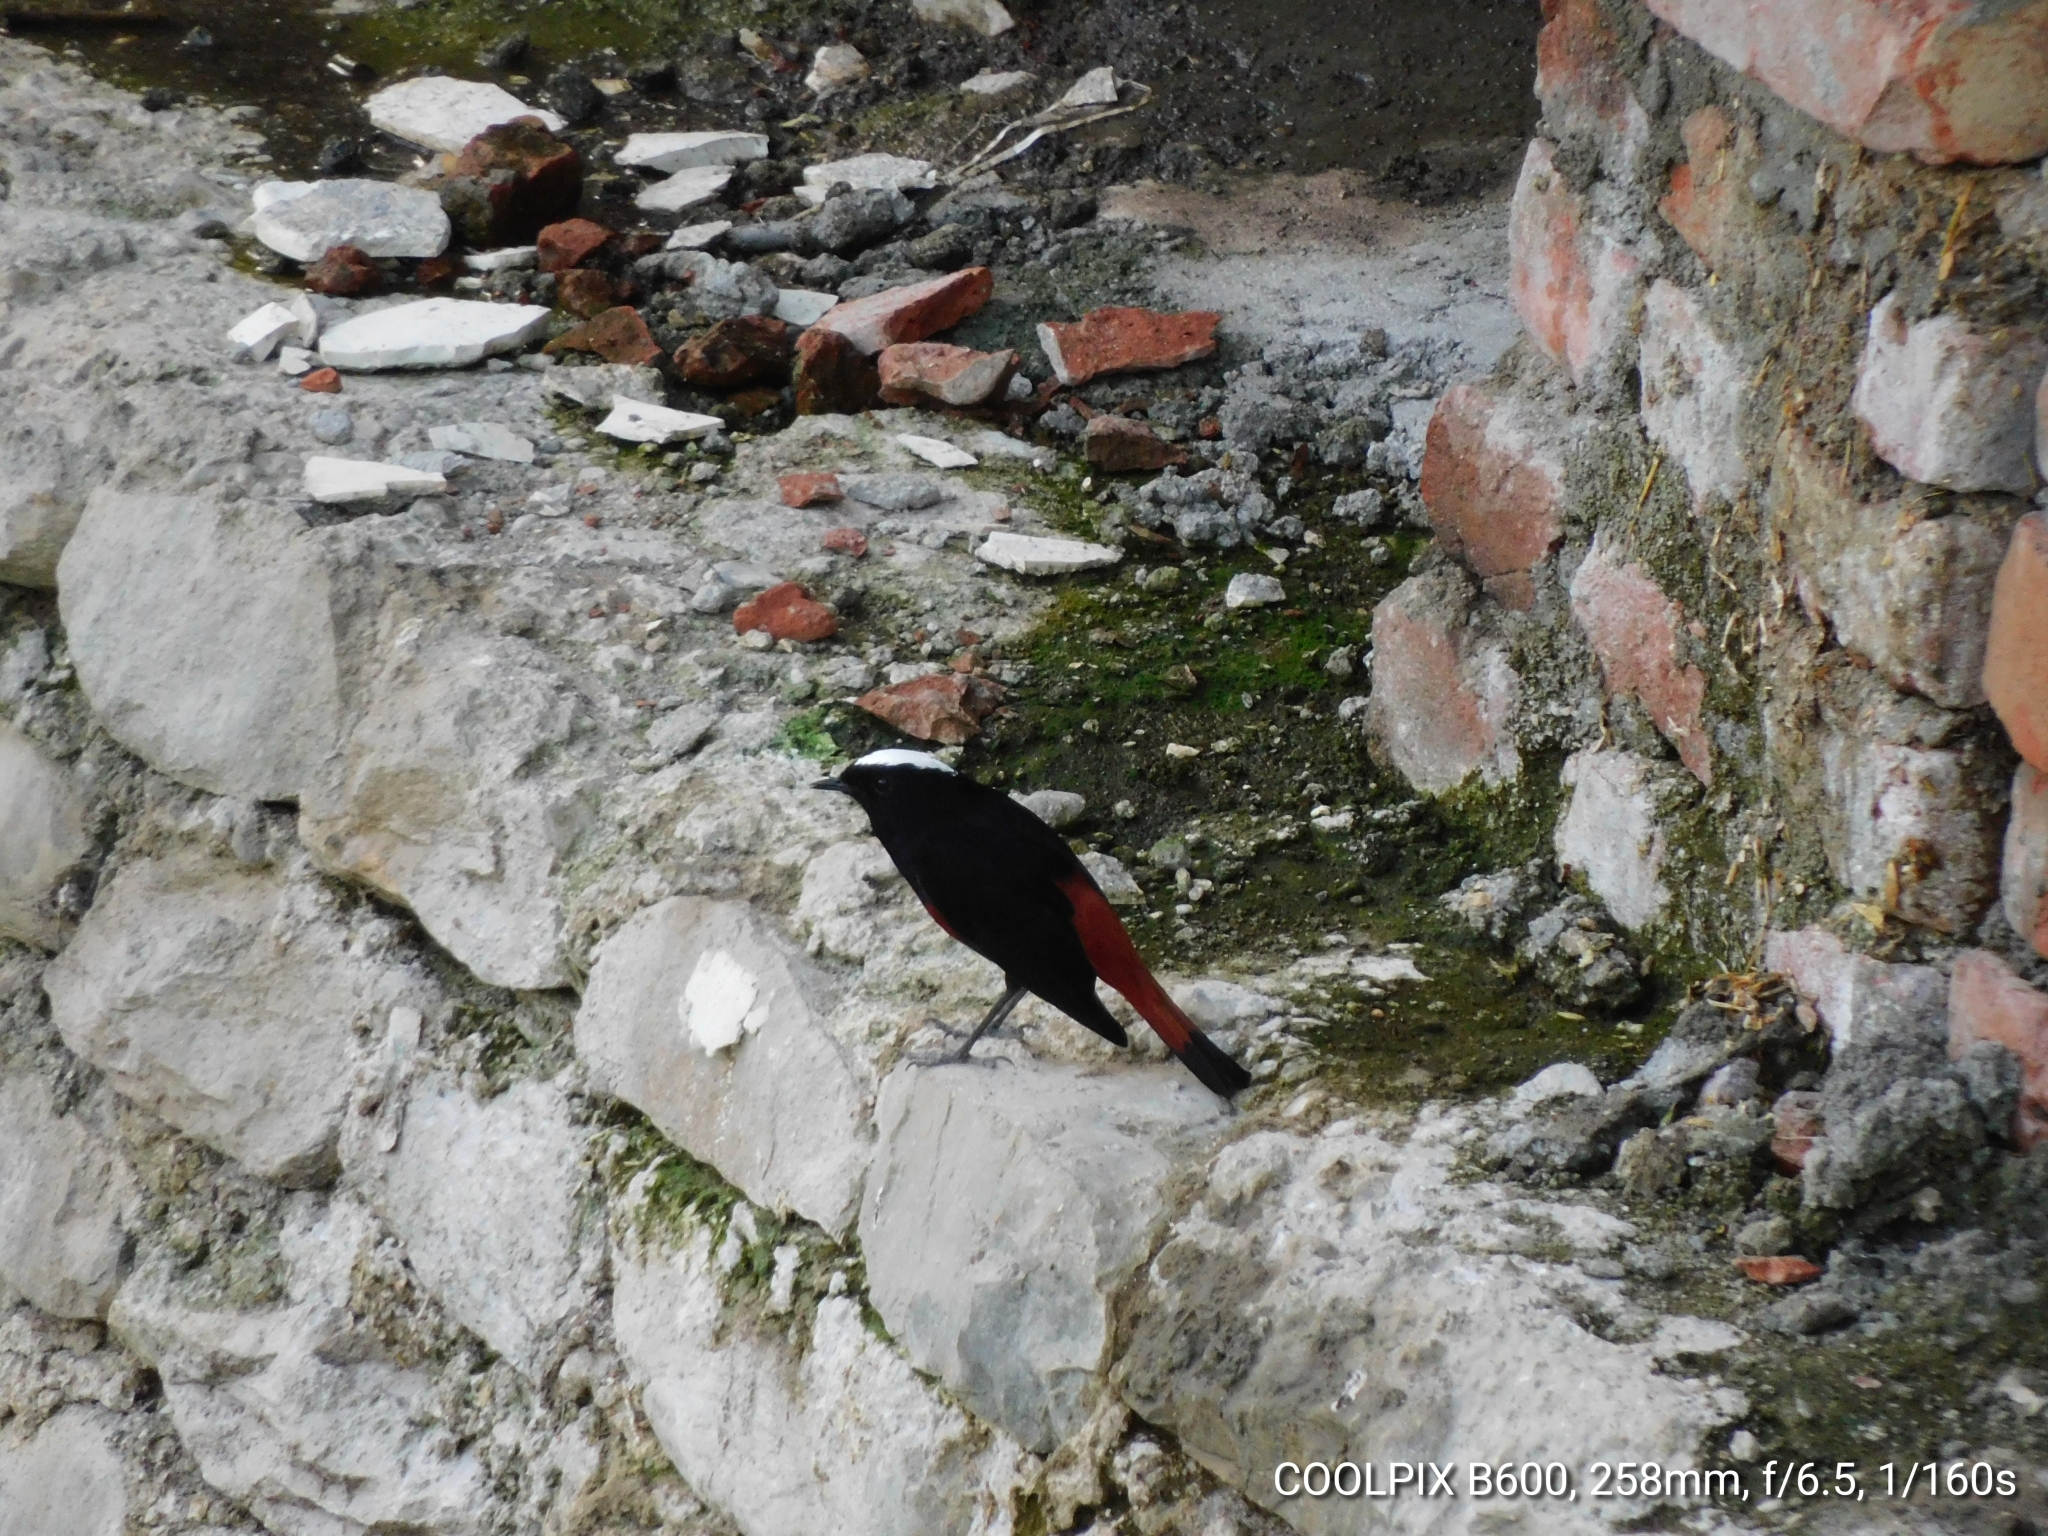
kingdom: Animalia
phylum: Chordata
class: Aves
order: Passeriformes
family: Muscicapidae
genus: Chaimarrornis
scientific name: Chaimarrornis leucocephalus
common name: White-capped redstart
